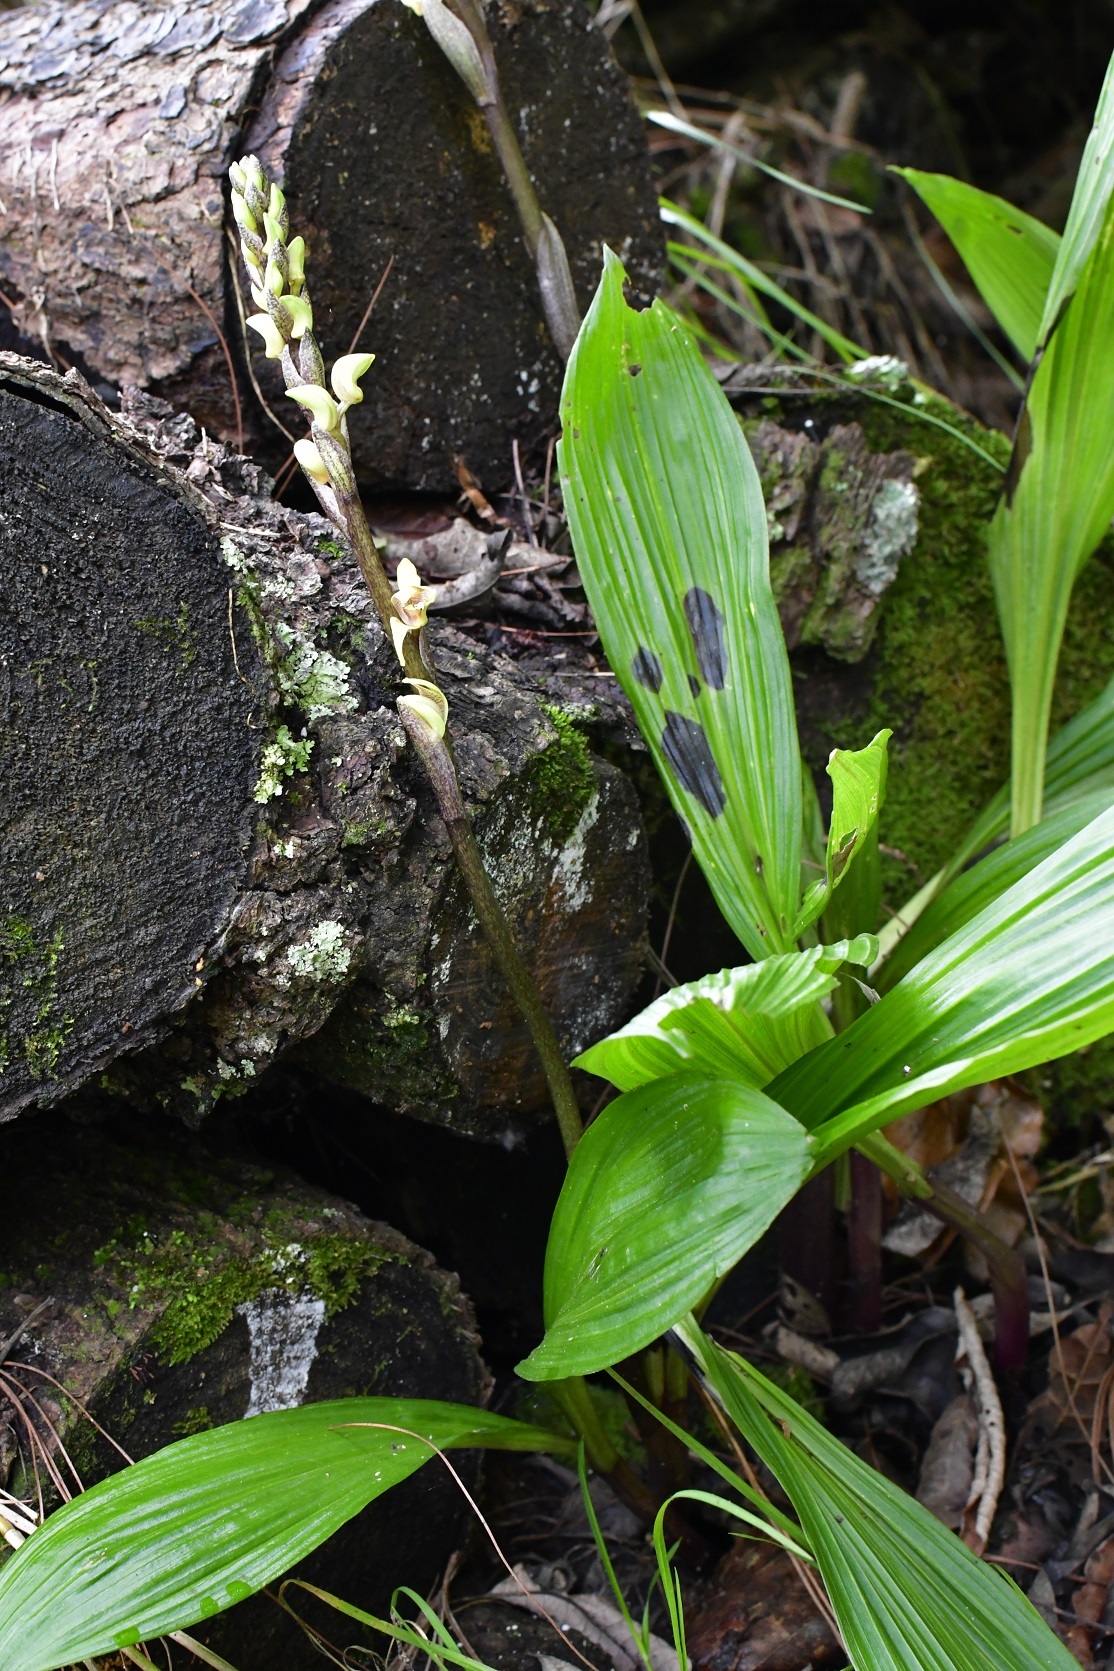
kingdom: Plantae
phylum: Tracheophyta
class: Liliopsida
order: Asparagales
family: Orchidaceae
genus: Govenia
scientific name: Govenia superba
